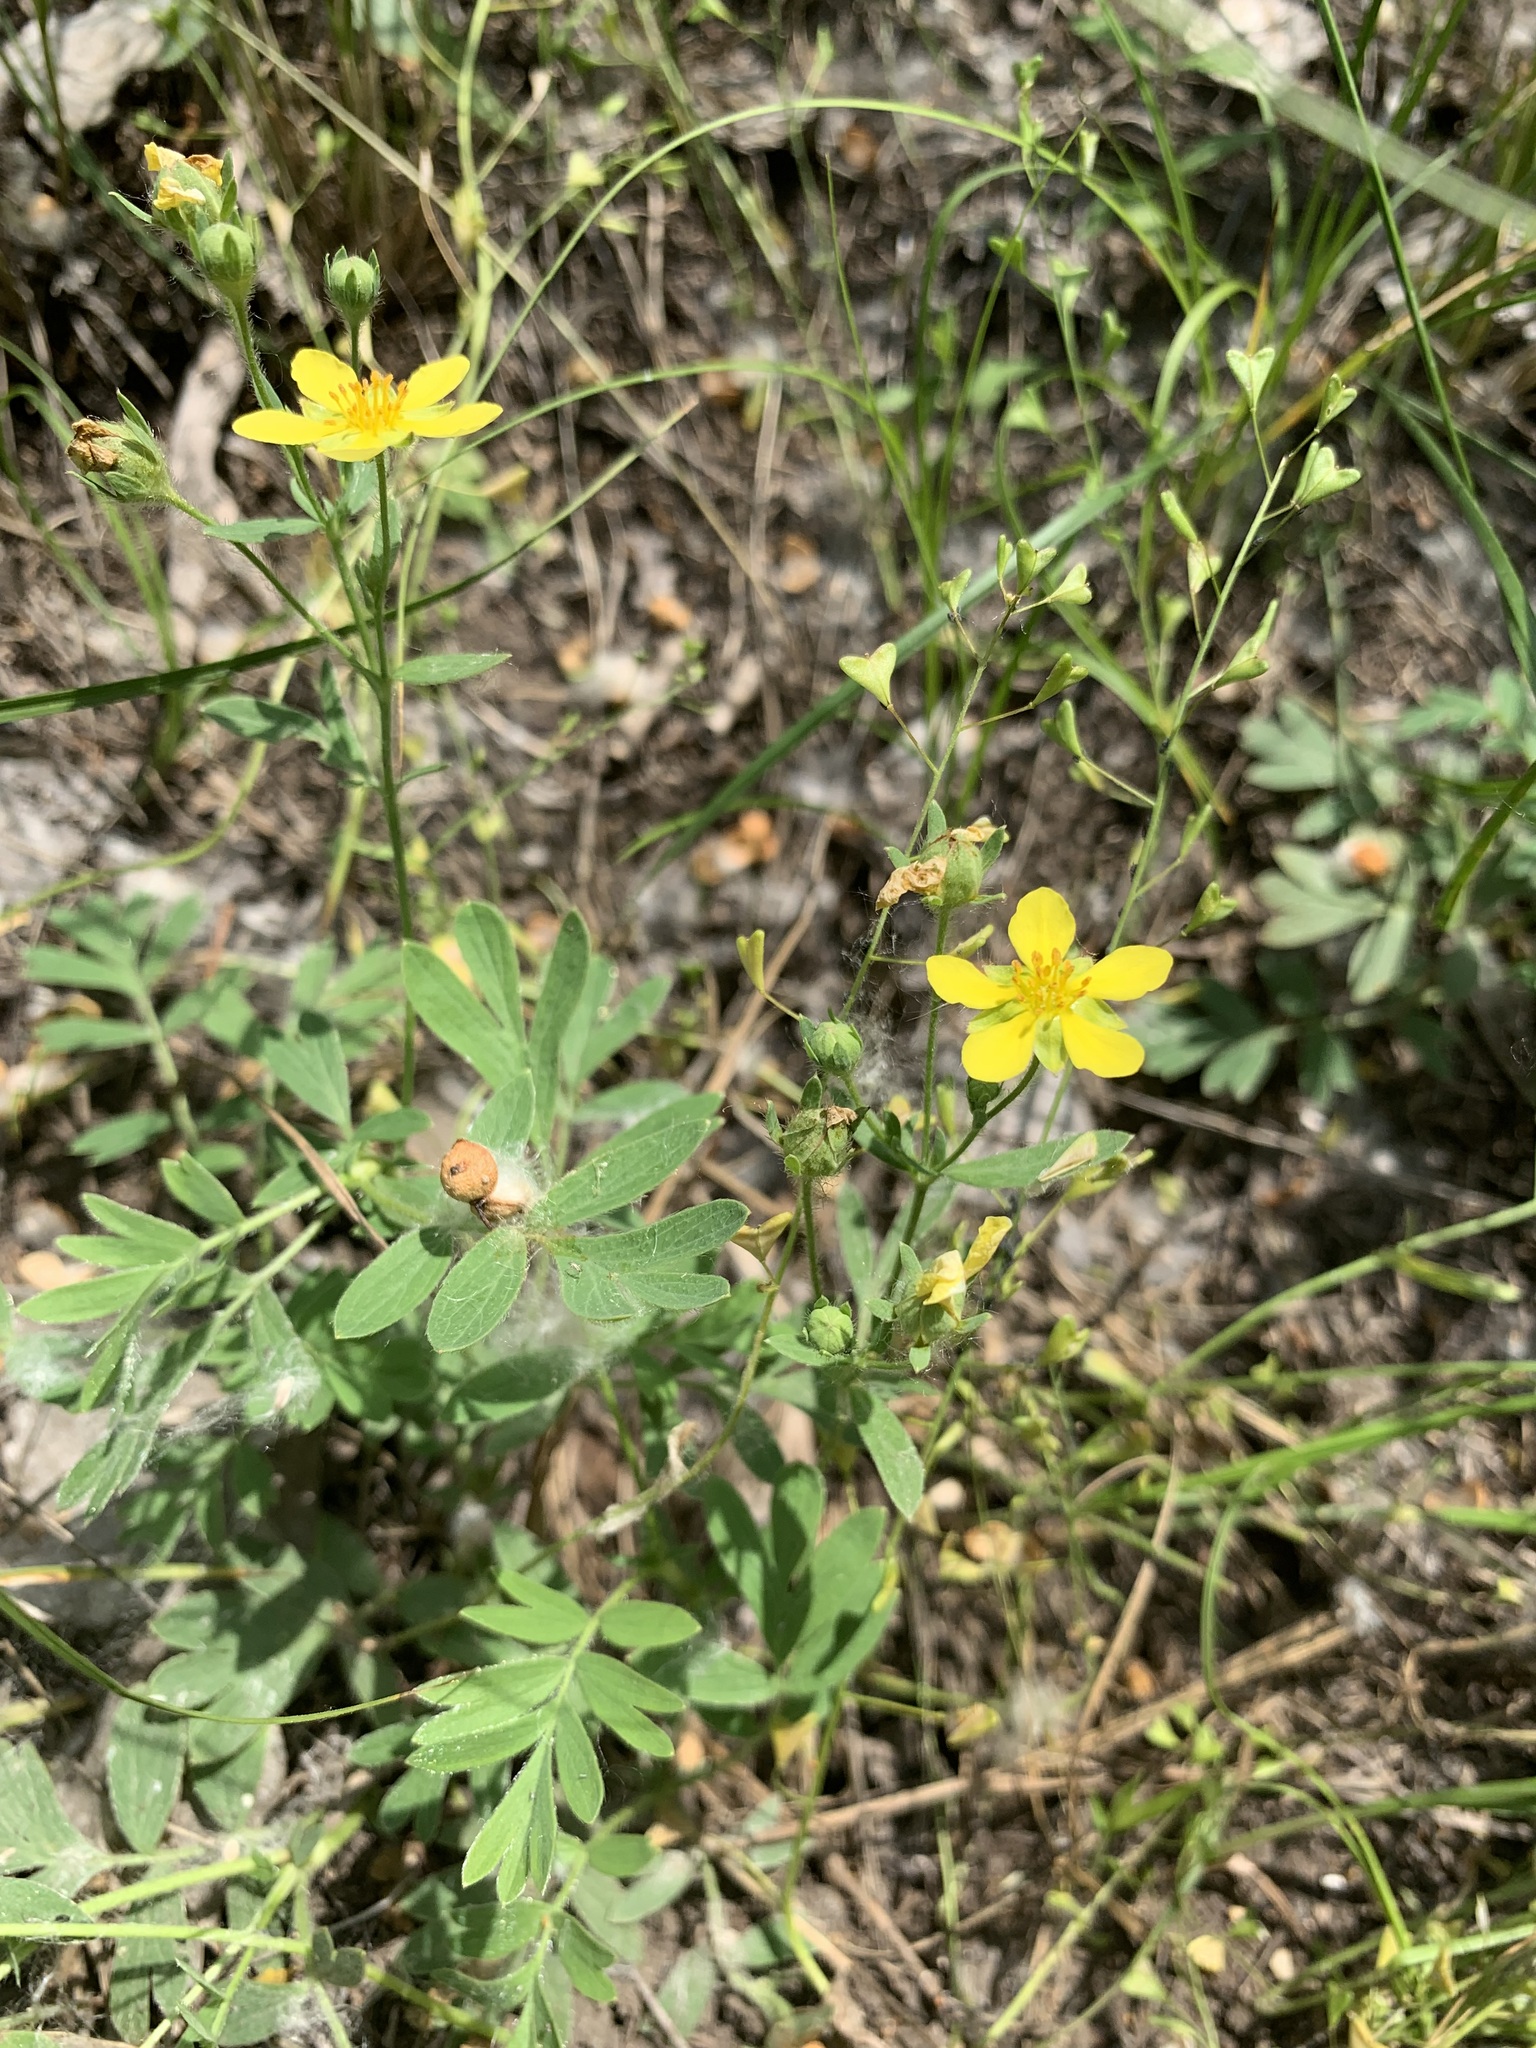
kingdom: Plantae
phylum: Tracheophyta
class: Magnoliopsida
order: Rosales
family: Rosaceae
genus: Sibbaldianthe
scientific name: Sibbaldianthe bifurca
